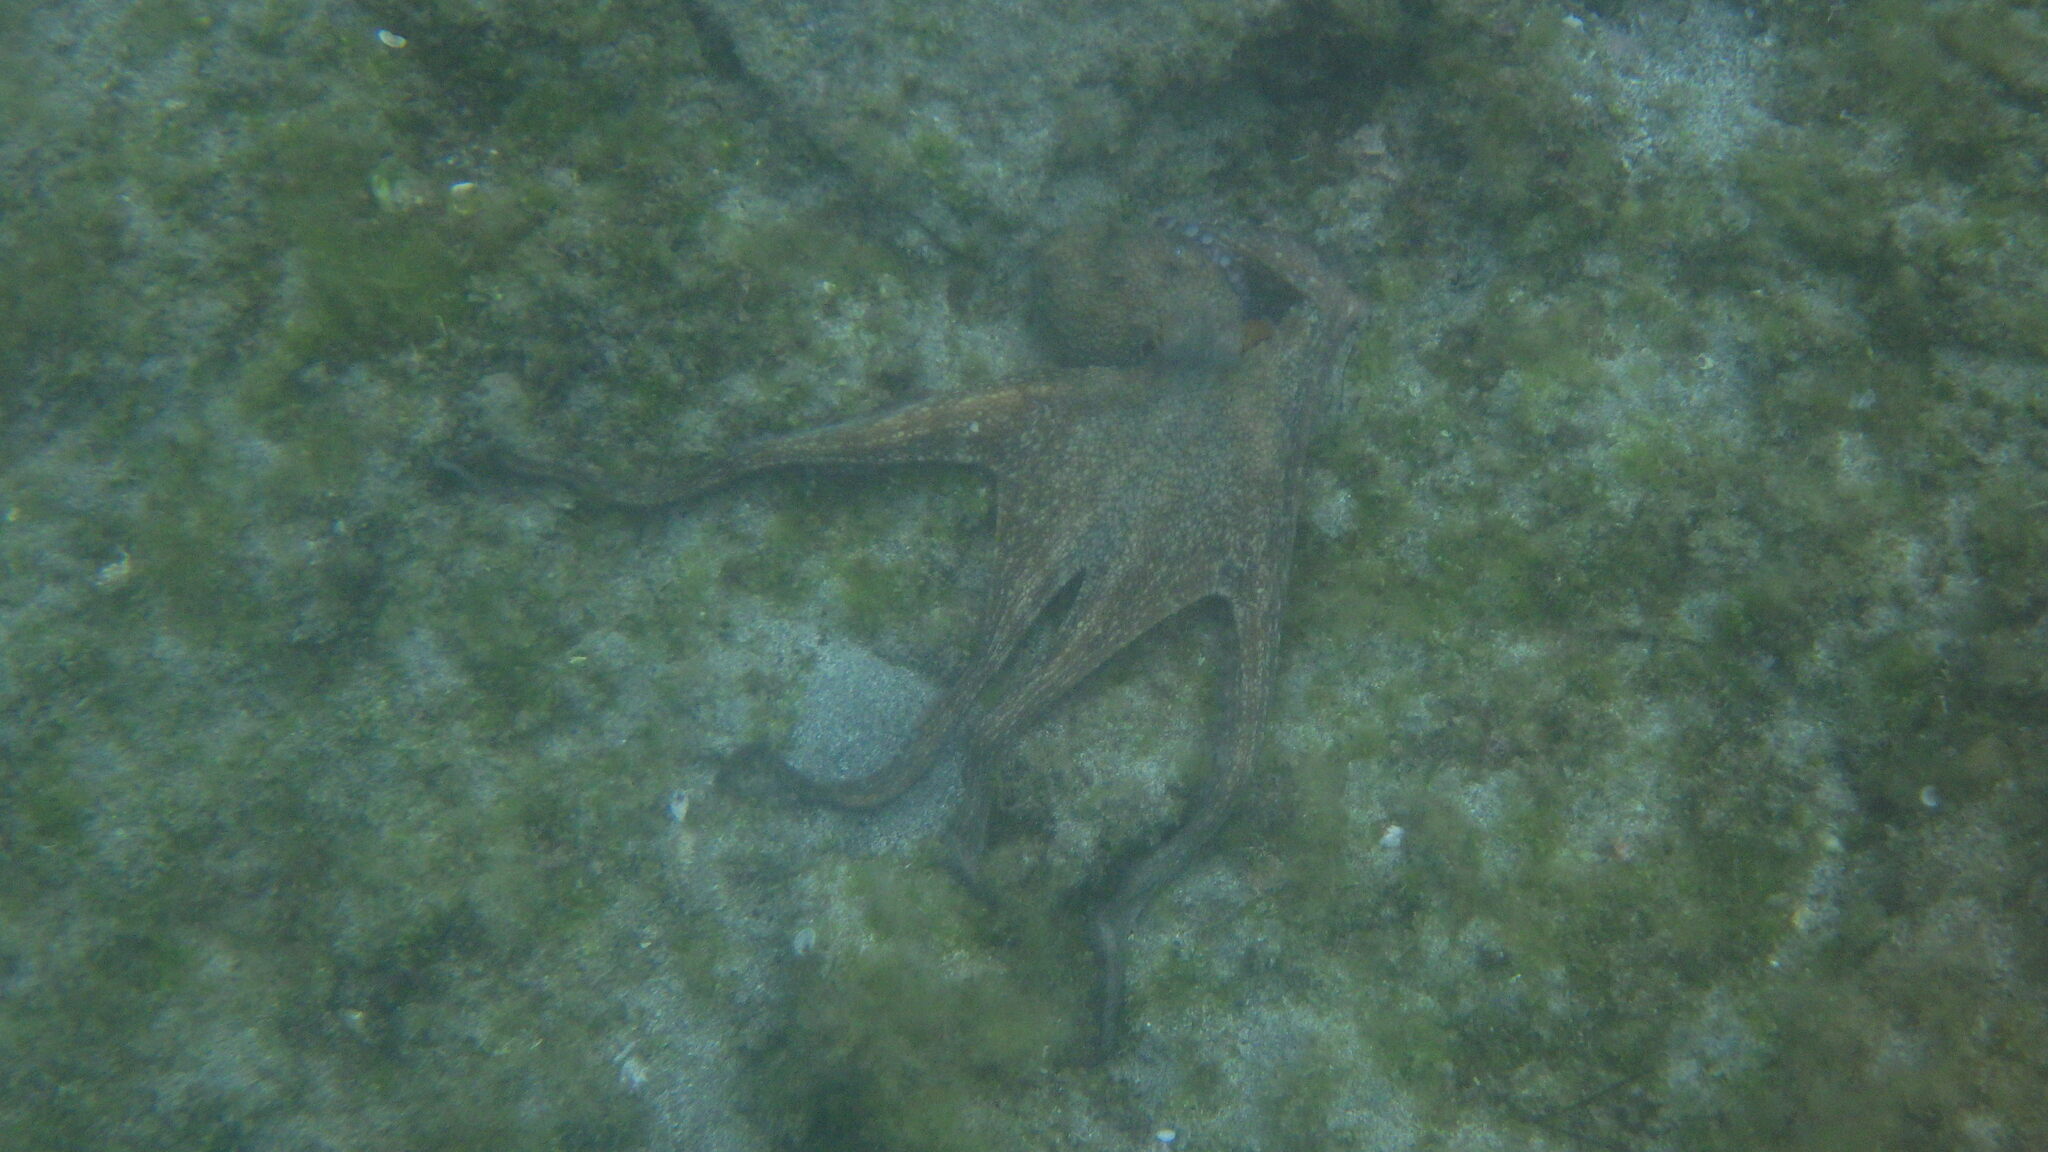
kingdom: Animalia
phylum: Mollusca
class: Cephalopoda
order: Octopoda
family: Octopodidae
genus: Octopus
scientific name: Octopus vulgaris
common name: Common octopus
